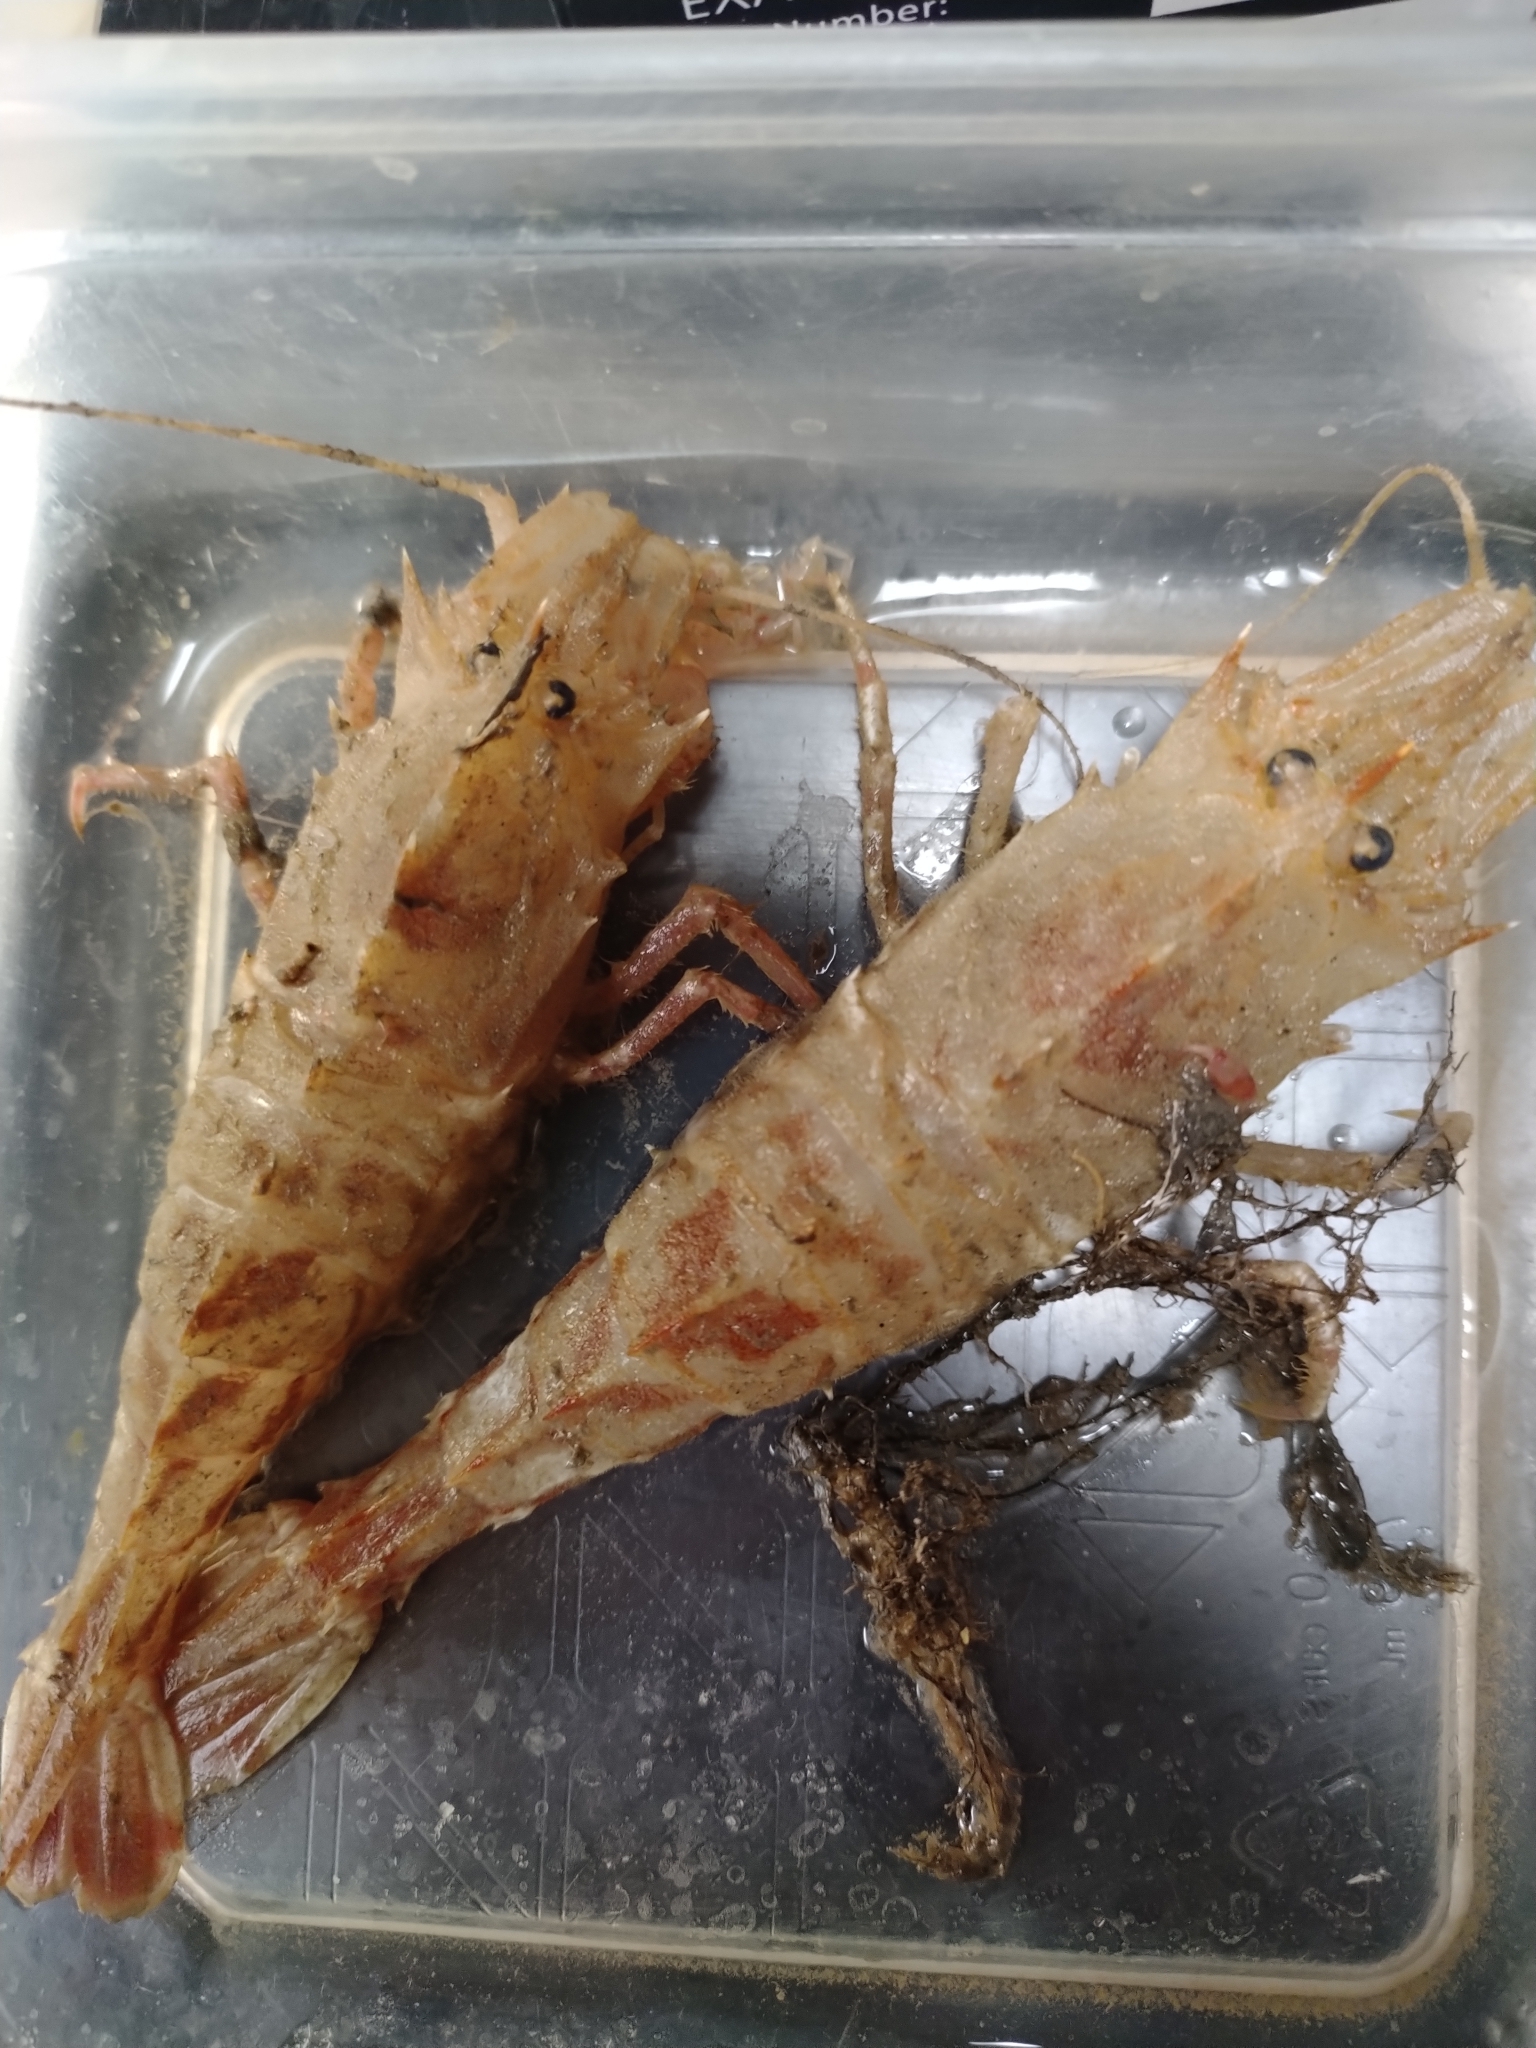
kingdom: Animalia
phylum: Arthropoda
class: Malacostraca
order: Decapoda
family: Crangonidae
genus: Sclerocrangon
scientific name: Sclerocrangon ferox
